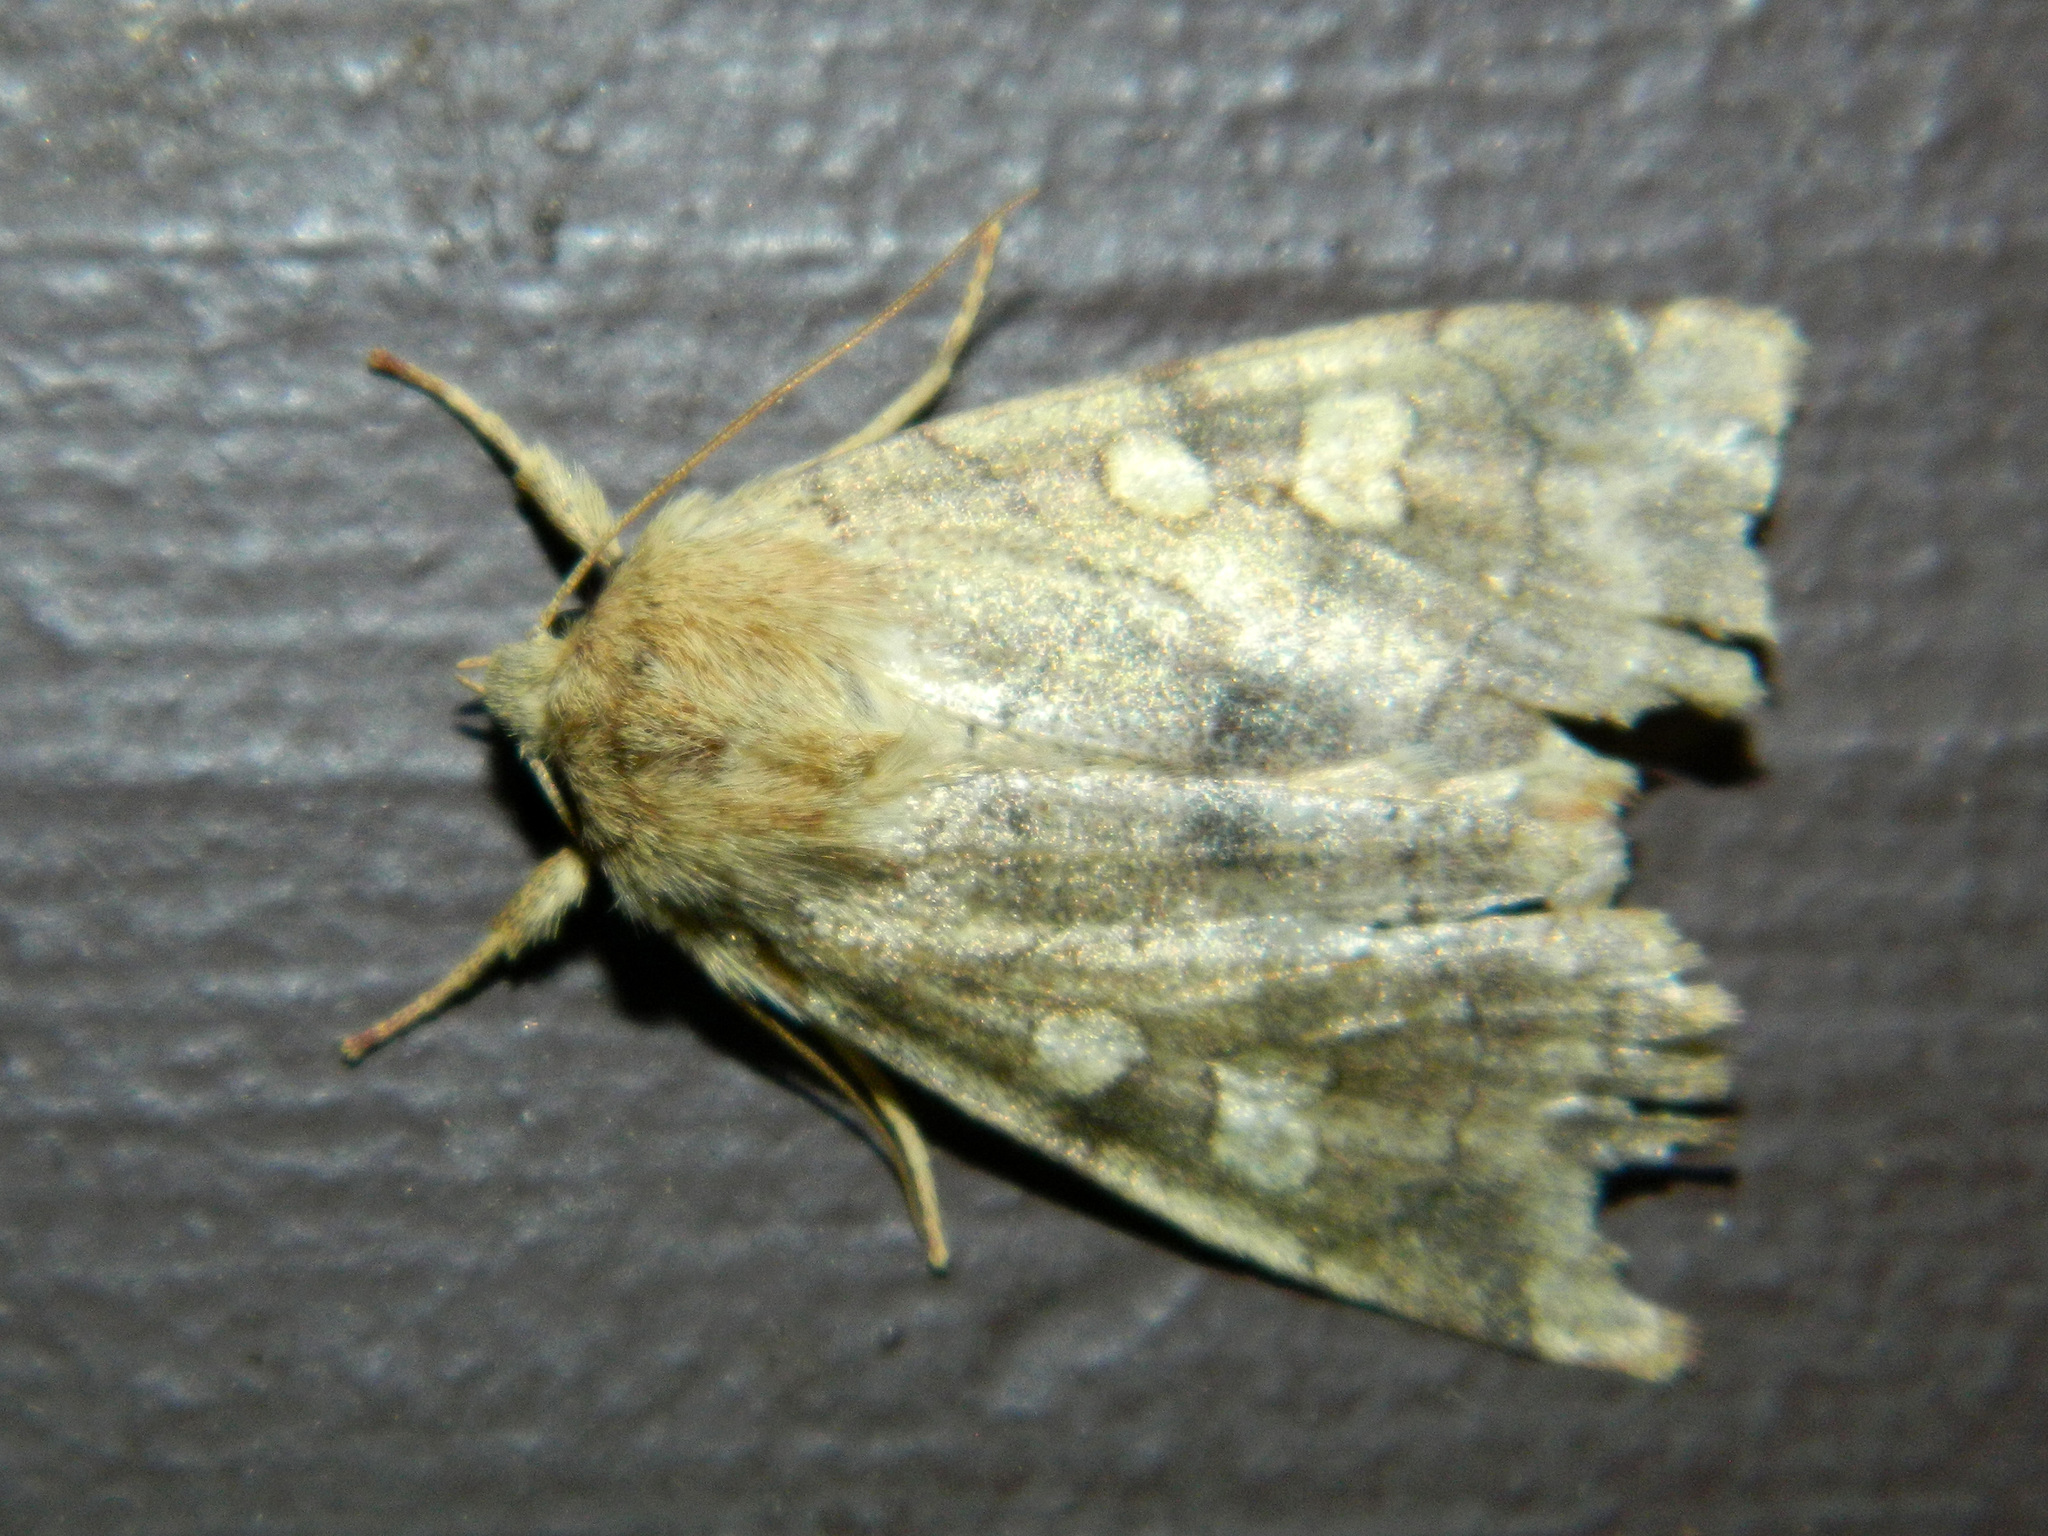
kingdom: Animalia
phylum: Arthropoda
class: Insecta
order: Lepidoptera
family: Noctuidae
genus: Enargia
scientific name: Enargia decolor
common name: Aspen twoleaf tier moth
